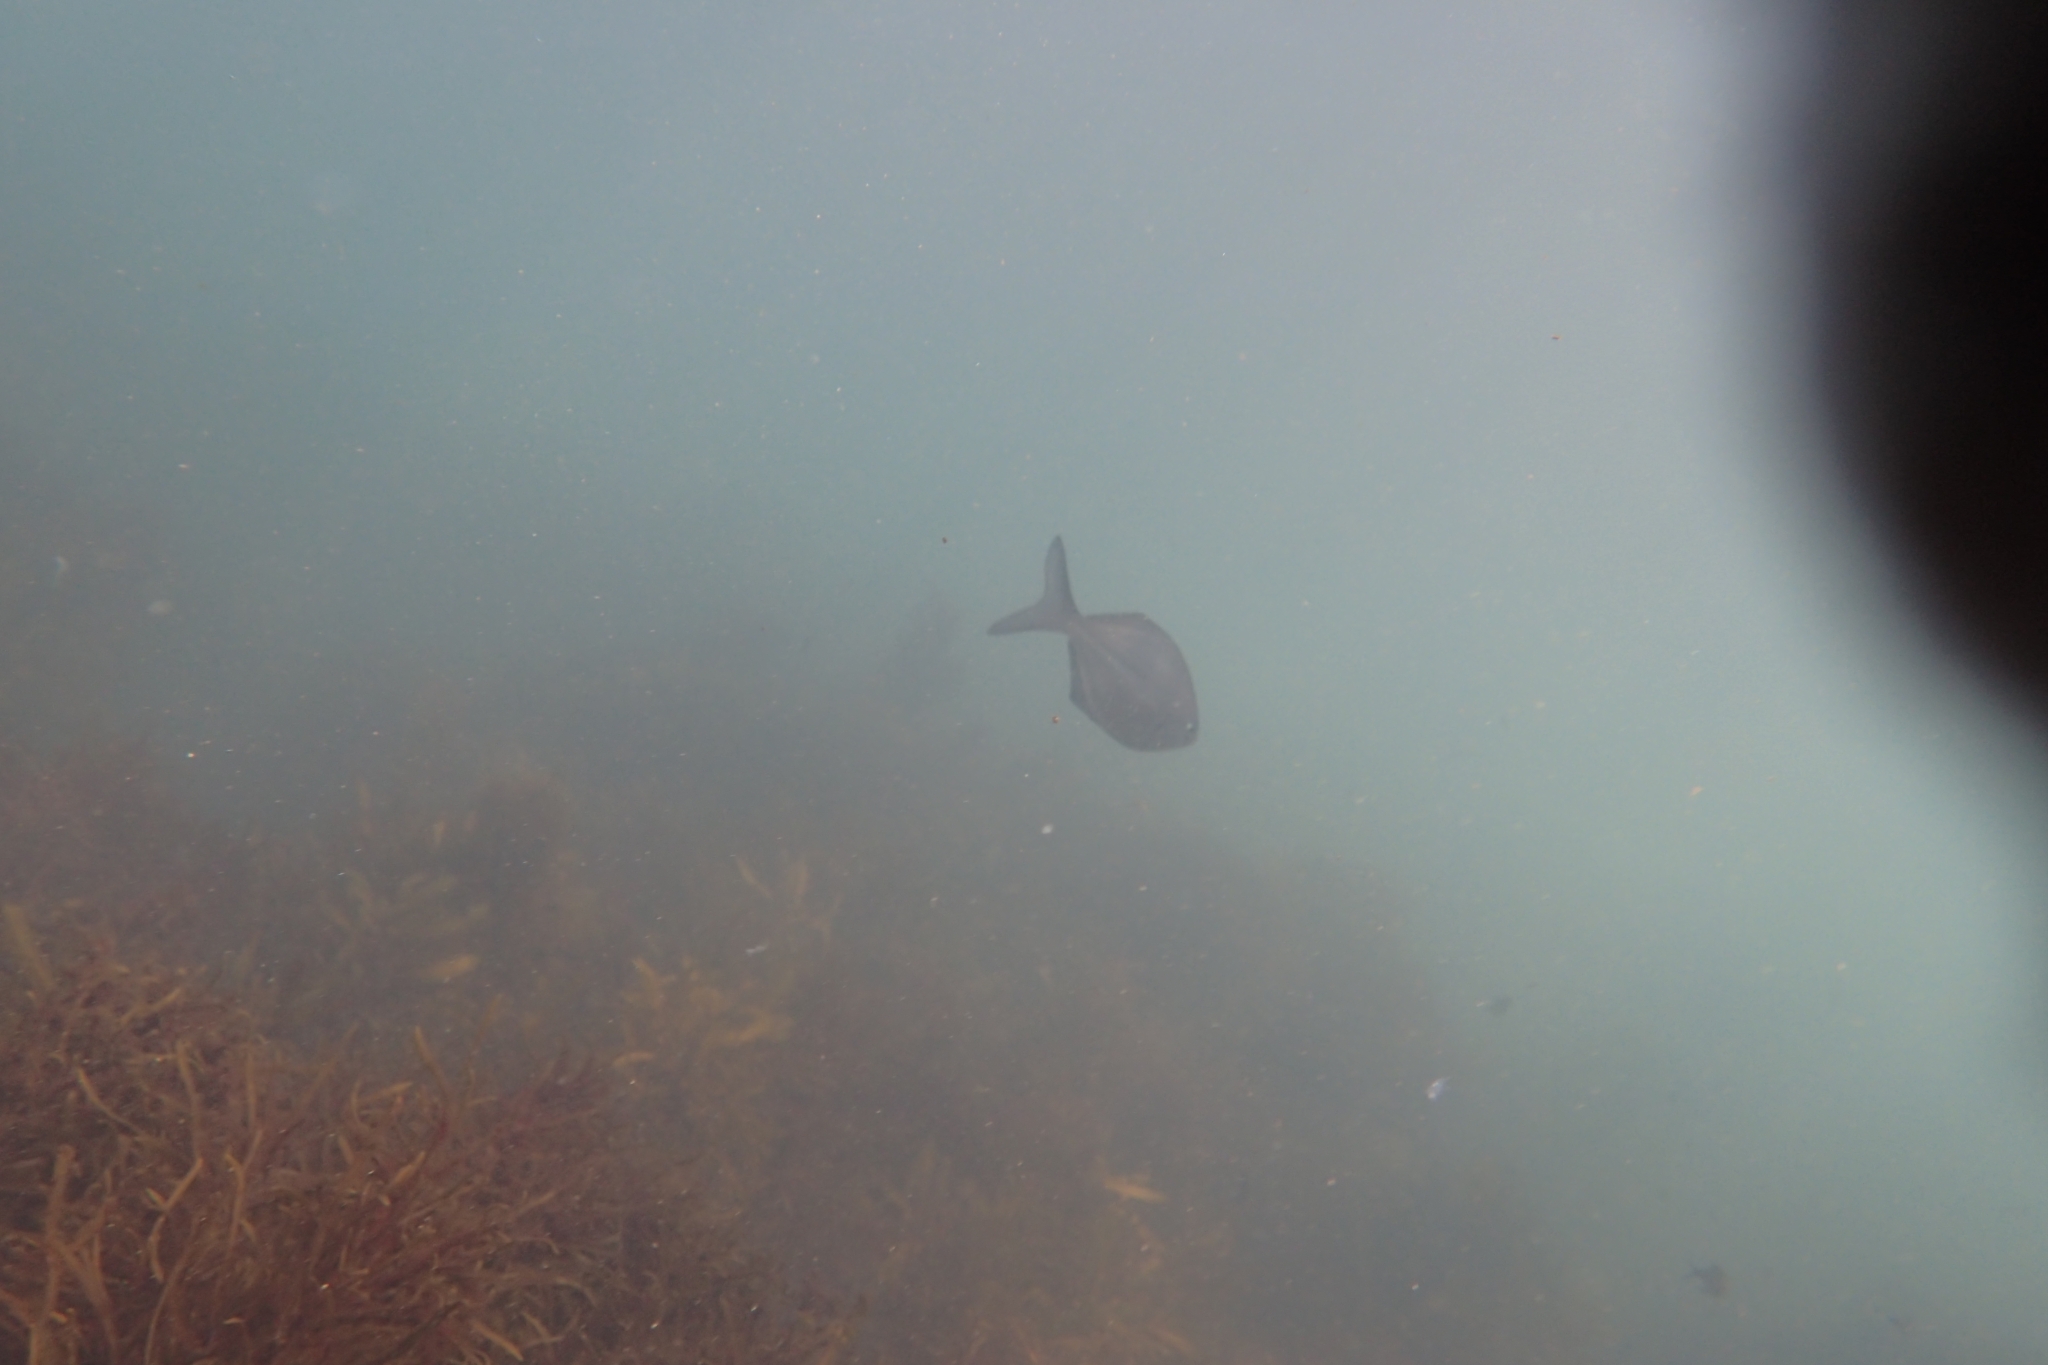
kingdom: Animalia
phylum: Chordata
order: Perciformes
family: Kyphosidae
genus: Scorpis
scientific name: Scorpis lineolata
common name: Sweep
